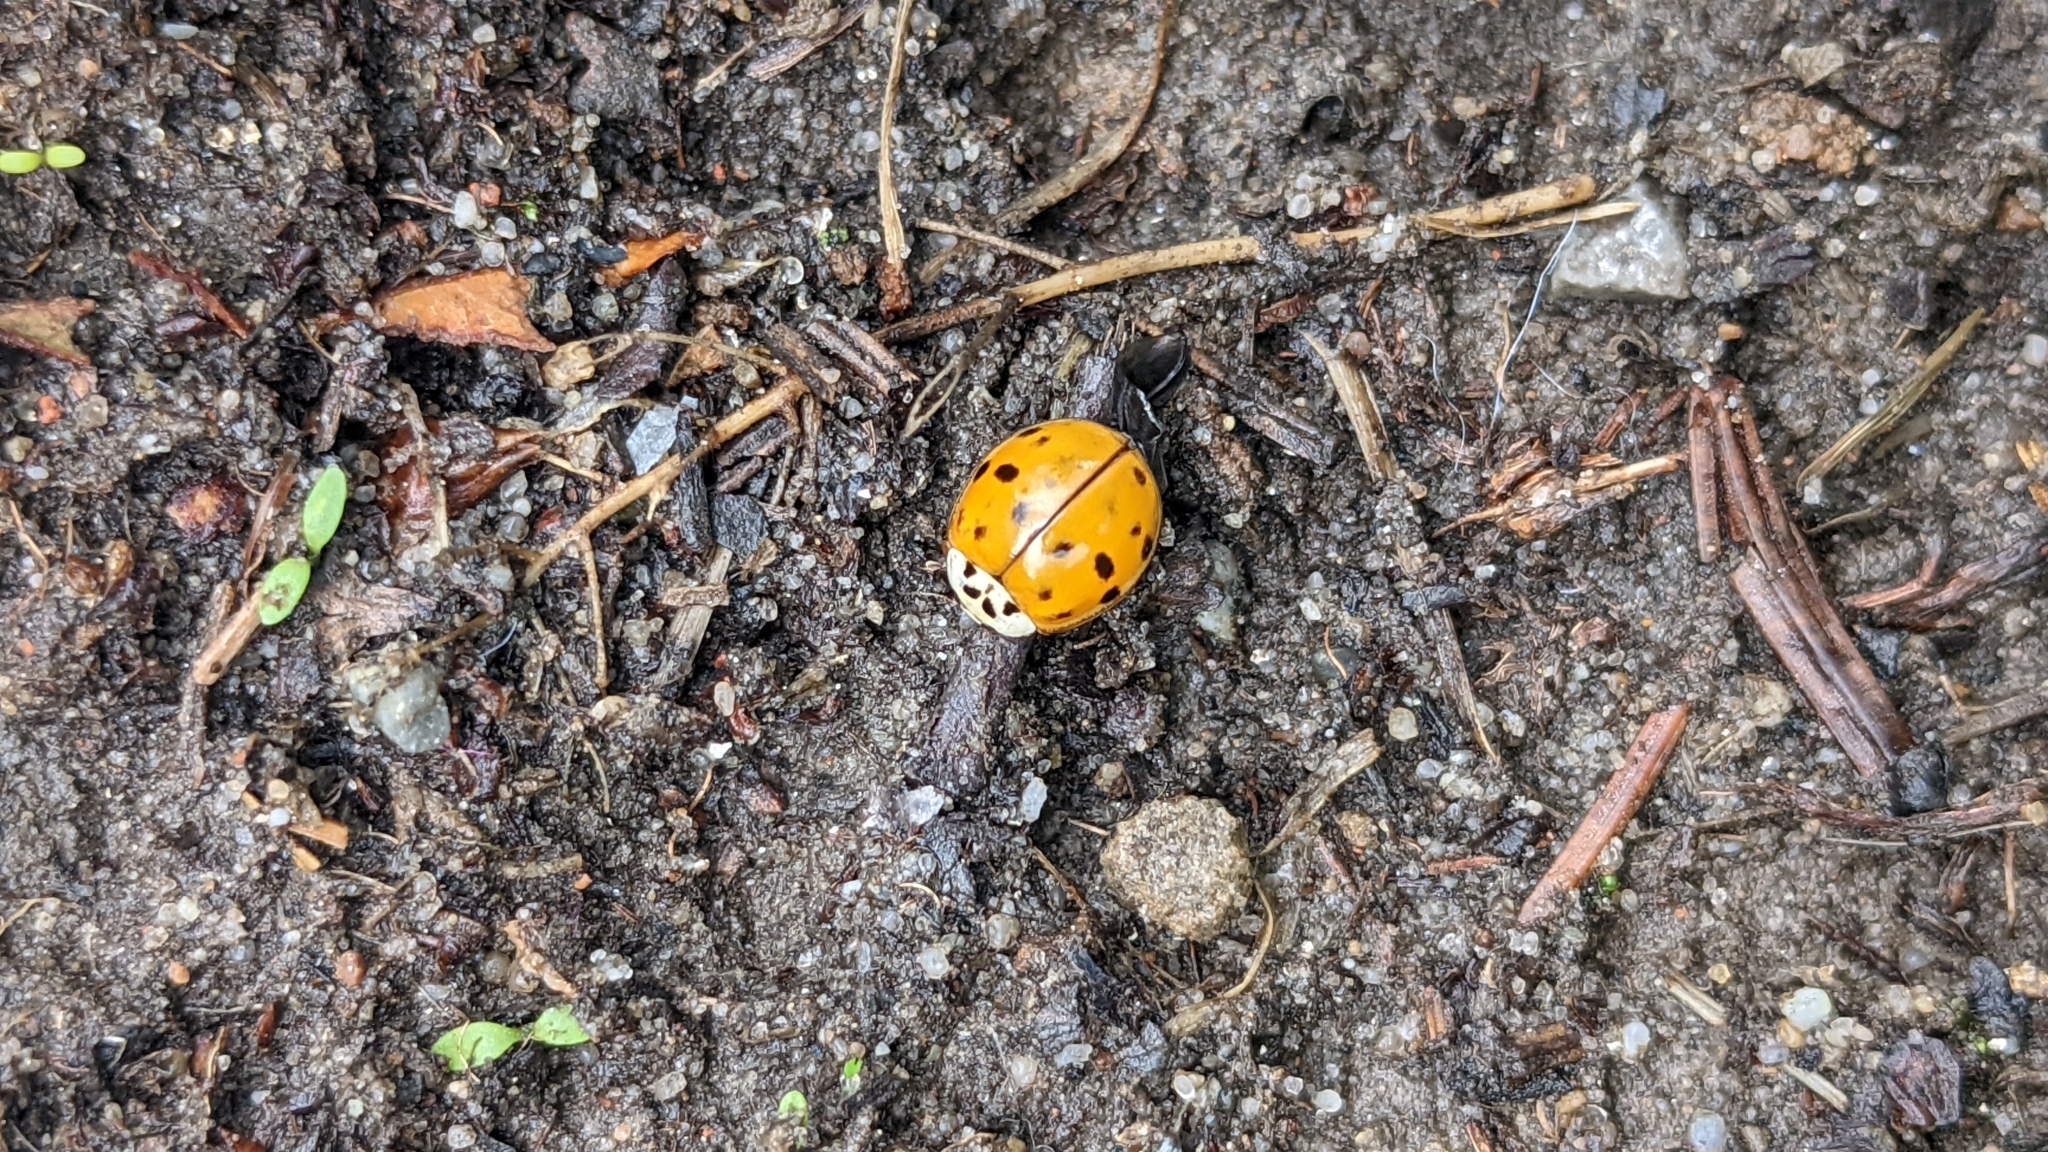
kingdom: Animalia
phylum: Arthropoda
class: Insecta
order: Coleoptera
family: Coccinellidae
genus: Harmonia
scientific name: Harmonia axyridis
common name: Harlequin ladybird
